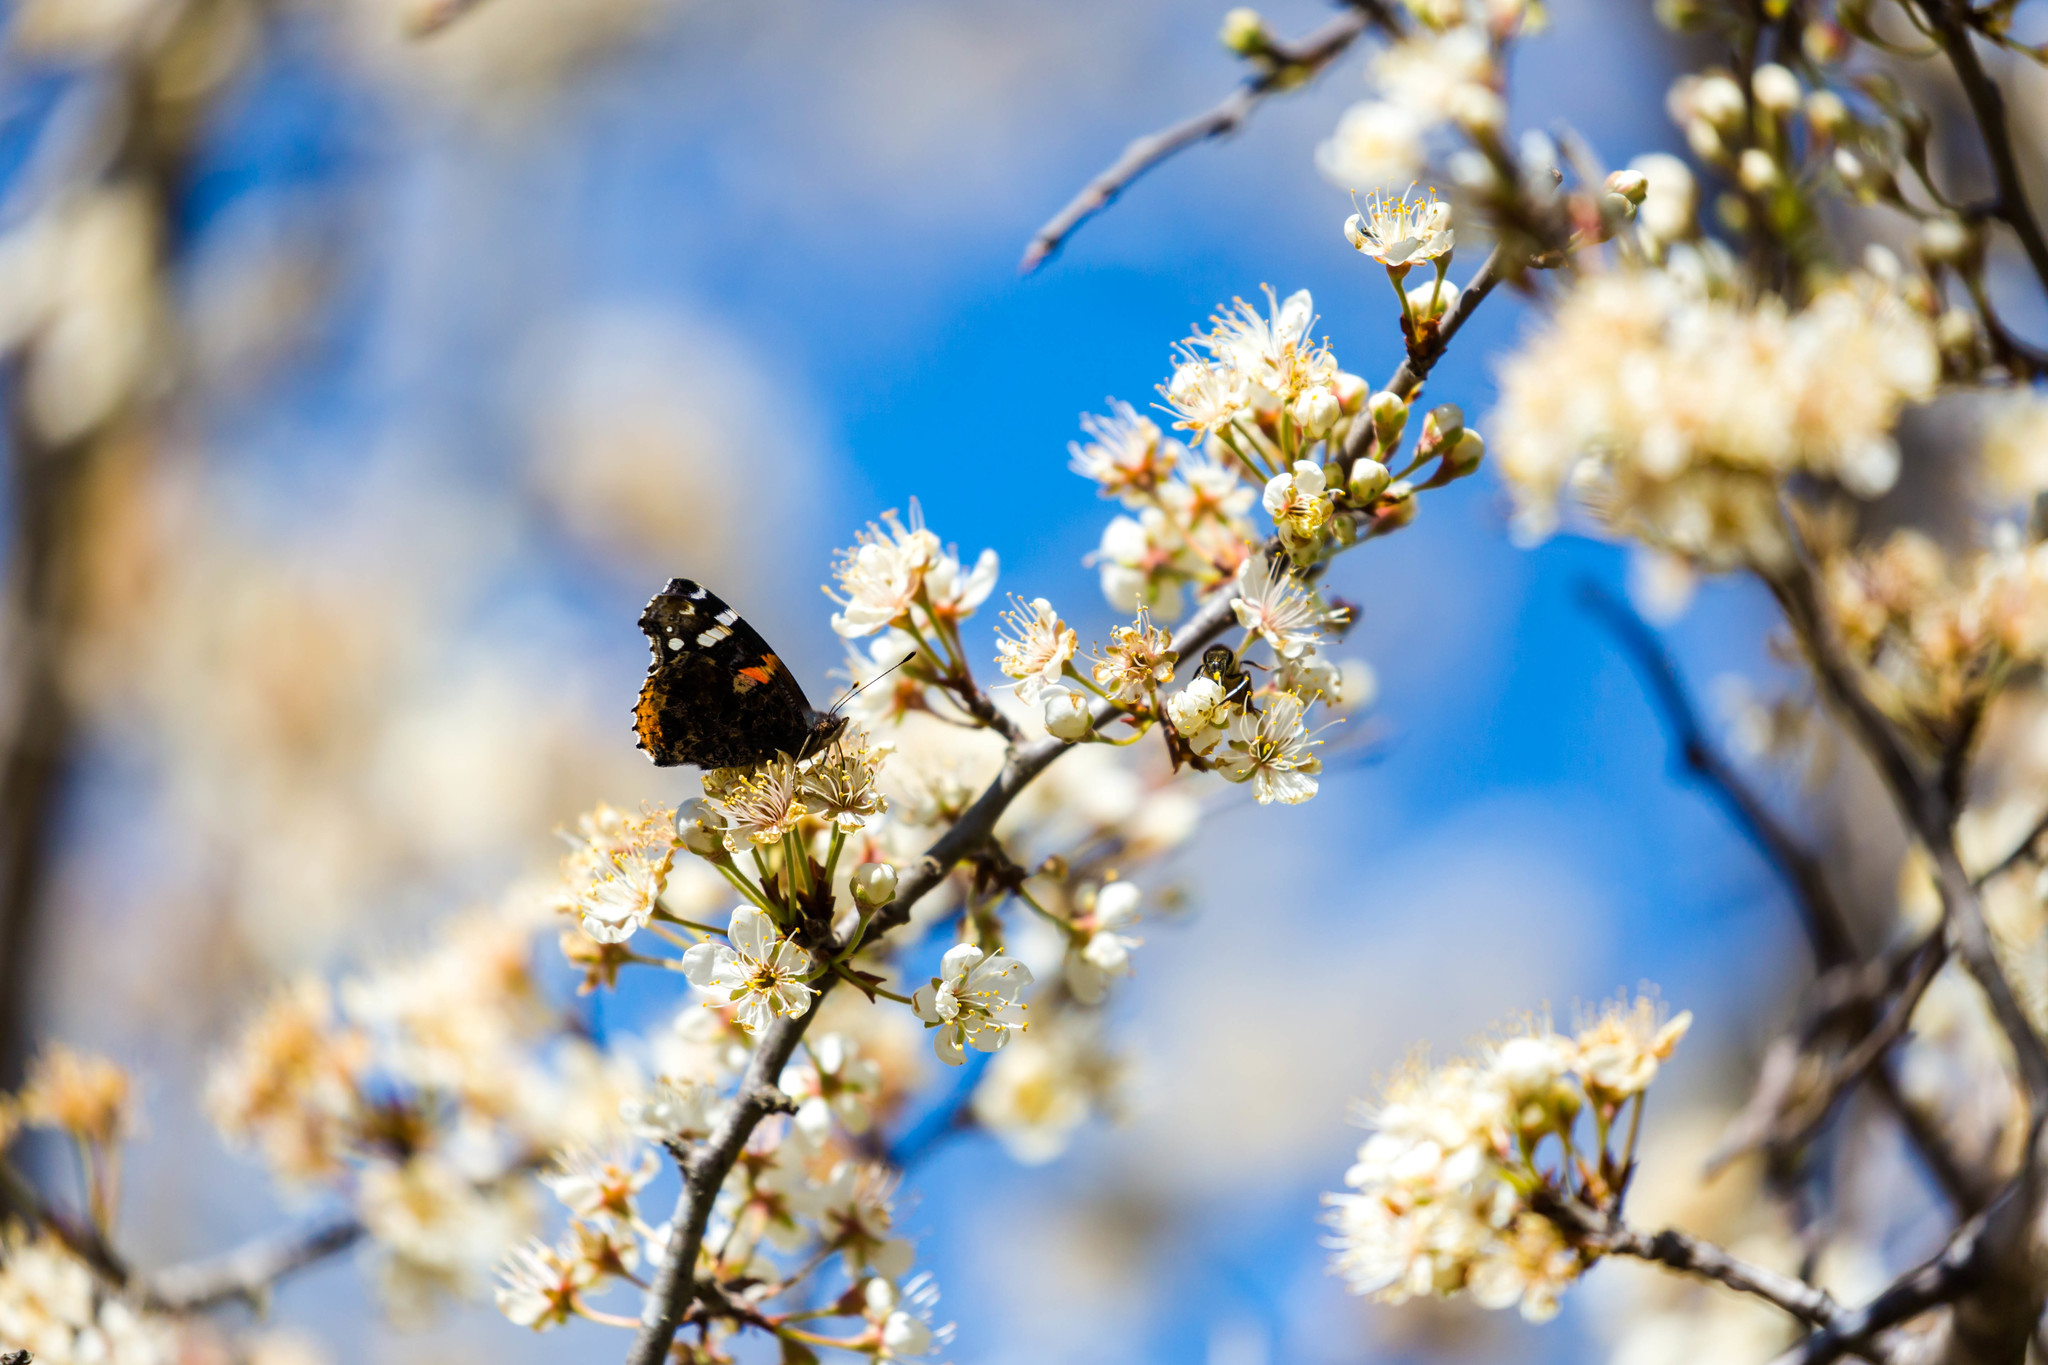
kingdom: Animalia
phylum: Arthropoda
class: Insecta
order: Lepidoptera
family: Nymphalidae
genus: Vanessa
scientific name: Vanessa atalanta
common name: Red admiral
